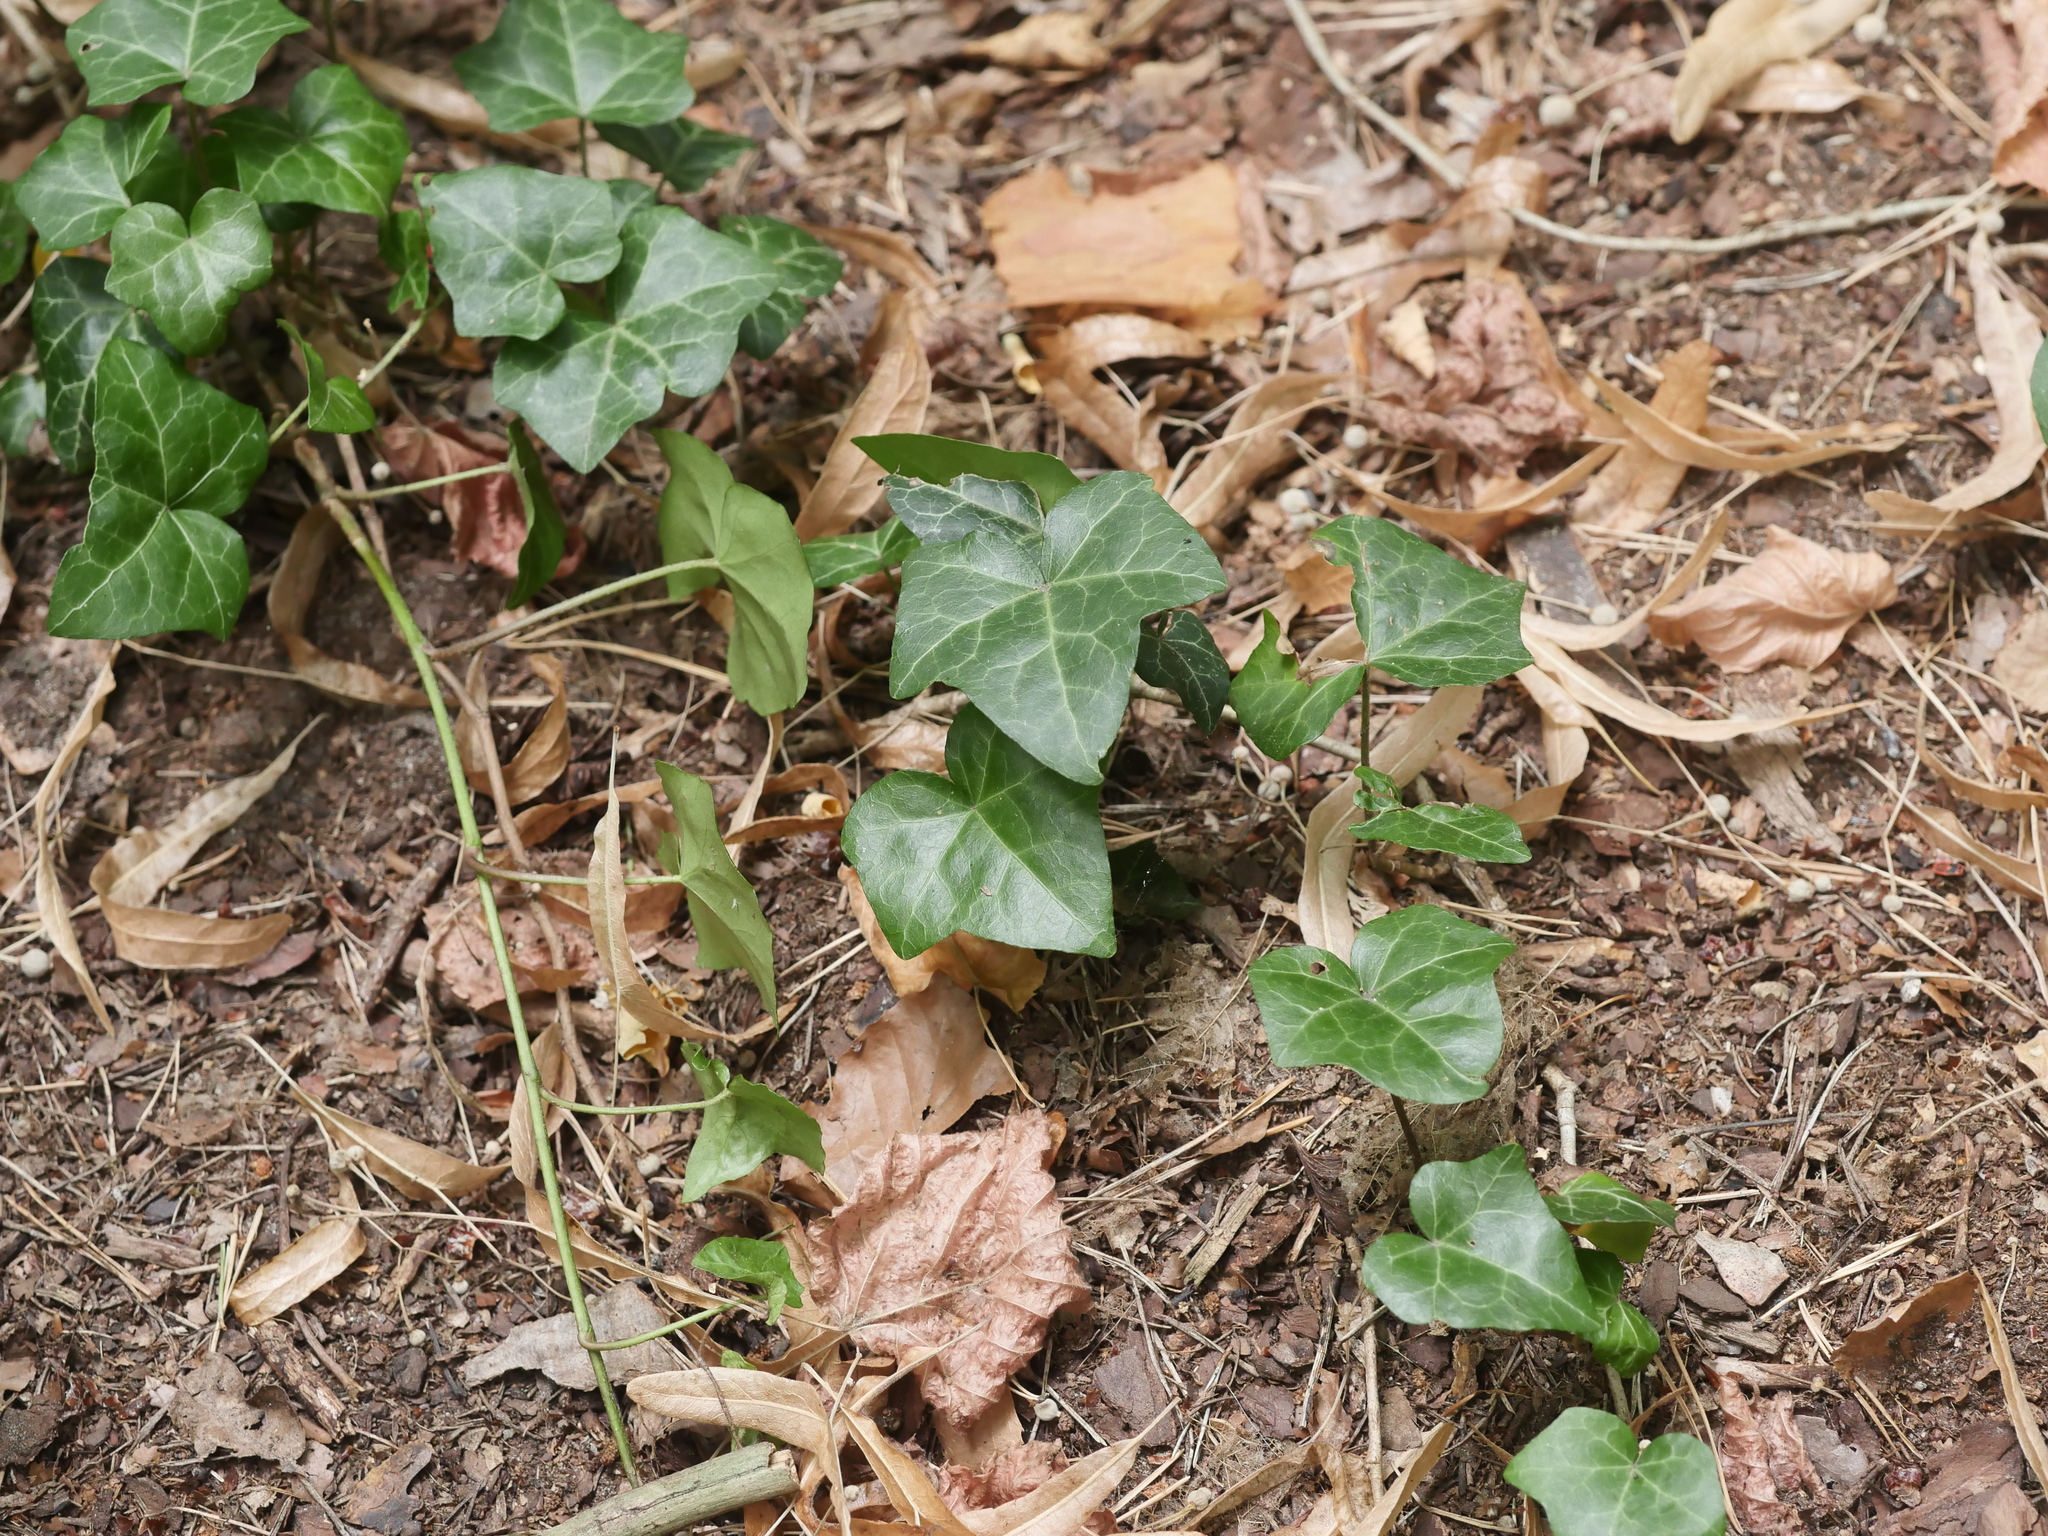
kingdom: Plantae
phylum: Tracheophyta
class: Magnoliopsida
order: Apiales
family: Araliaceae
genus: Hedera
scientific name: Hedera helix
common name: Ivy
